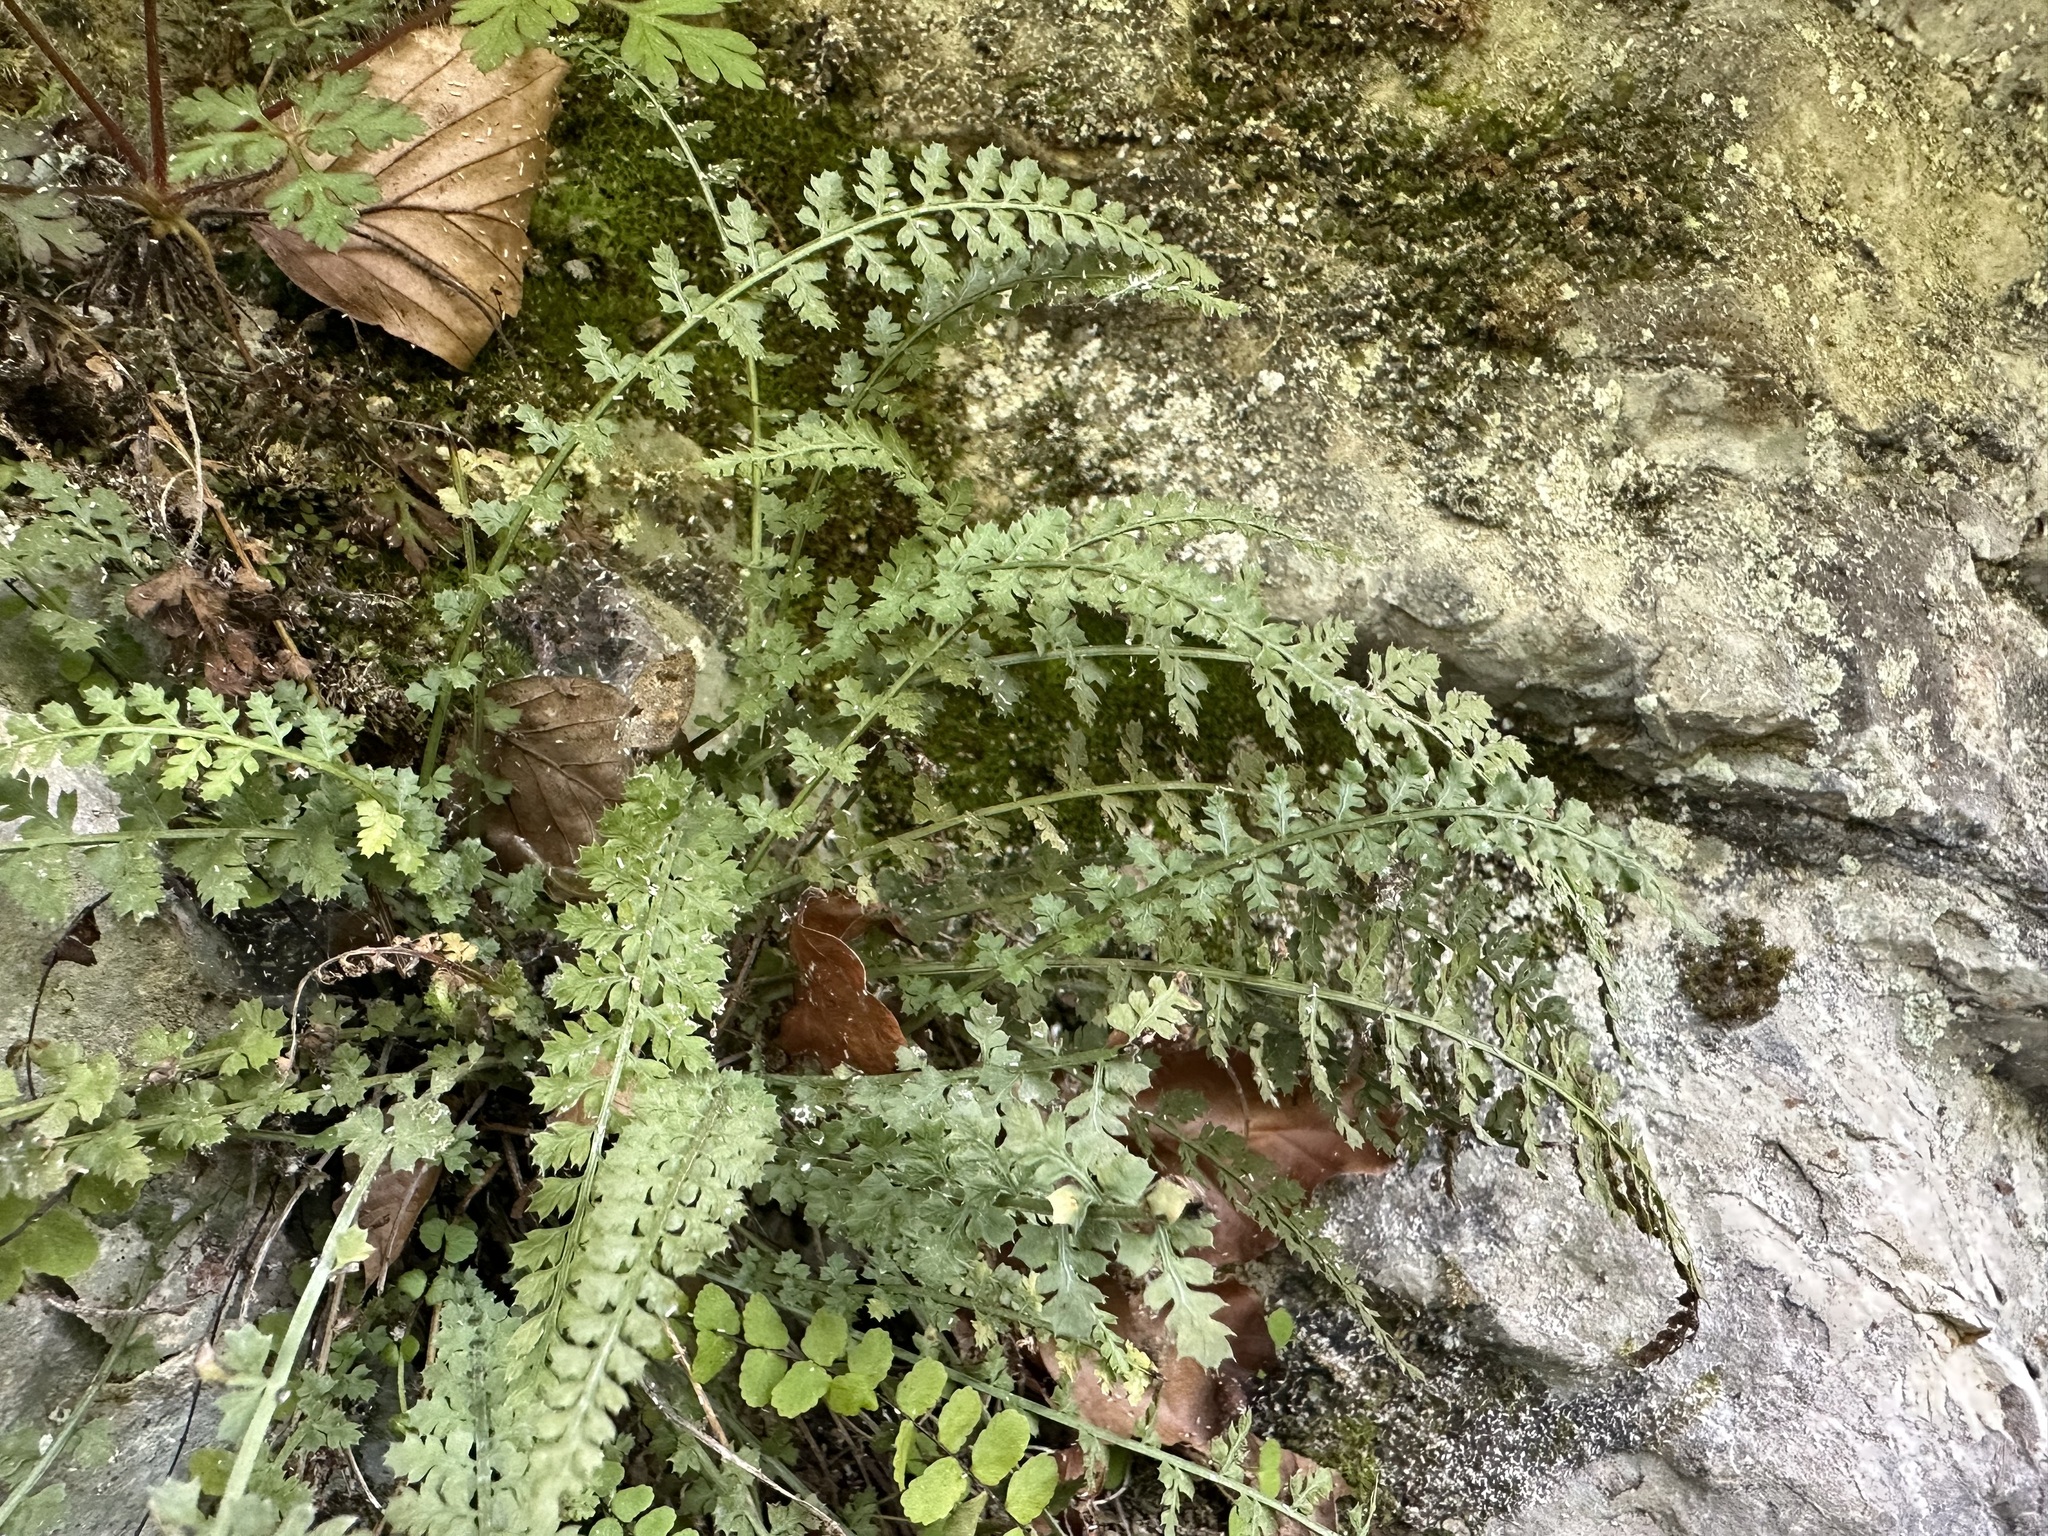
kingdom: Plantae
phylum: Tracheophyta
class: Polypodiopsida
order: Polypodiales
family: Aspleniaceae
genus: Asplenium
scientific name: Asplenium fontanum
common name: Fountain spleenwort
